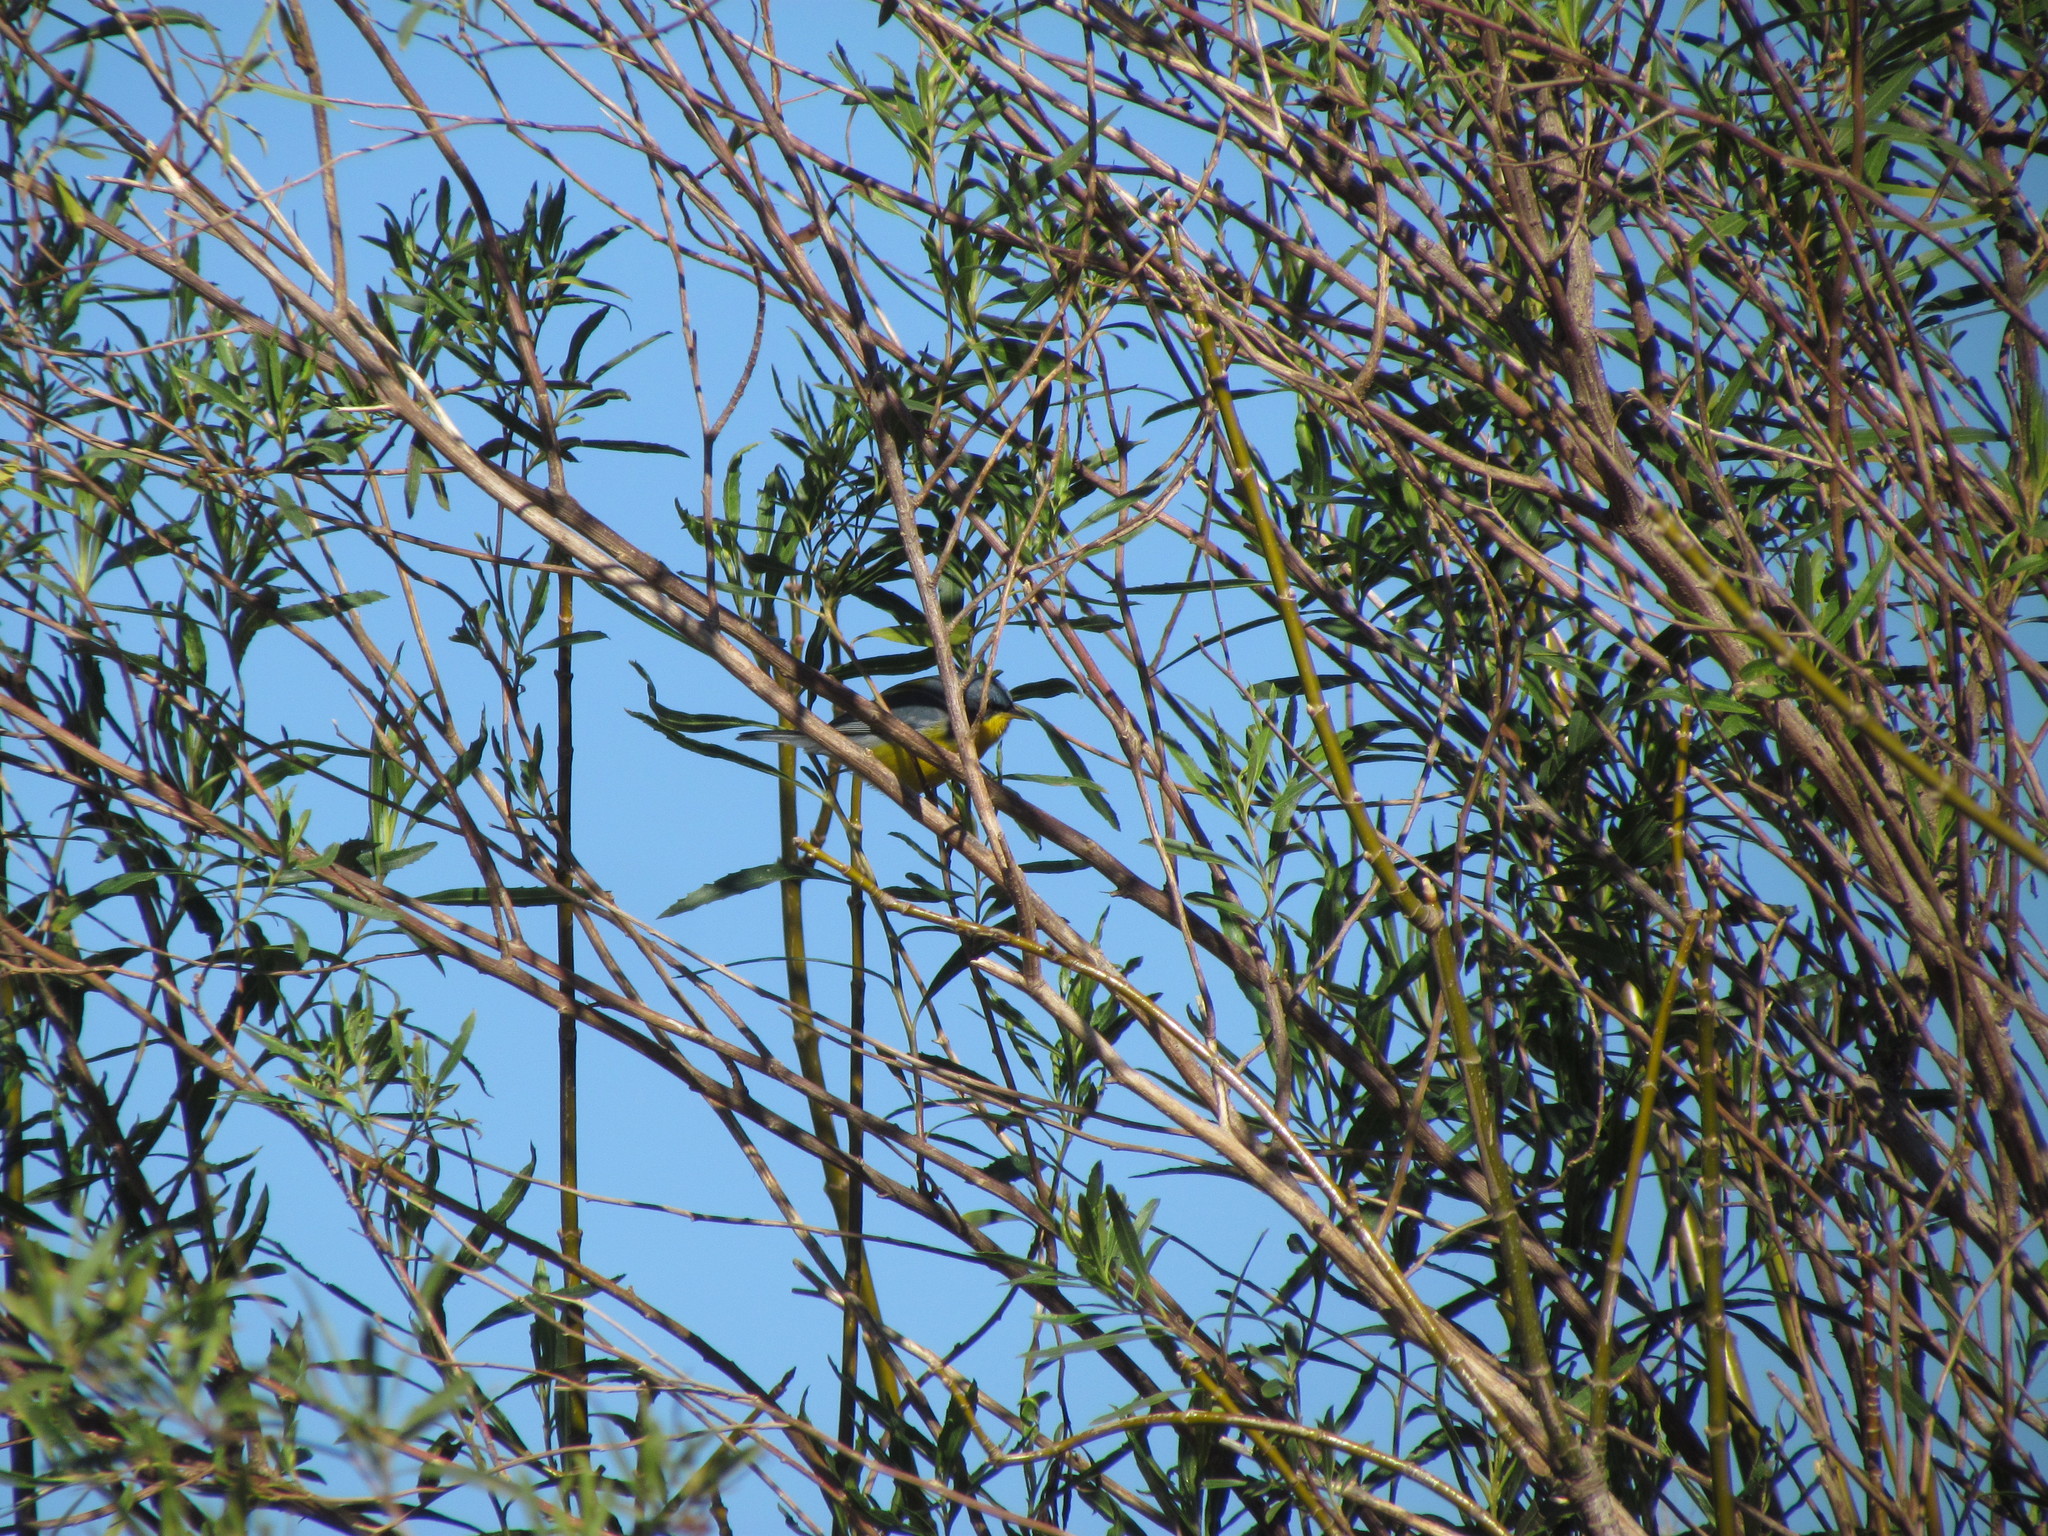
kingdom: Animalia
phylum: Chordata
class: Aves
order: Passeriformes
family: Parulidae
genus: Setophaga
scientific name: Setophaga pitiayumi
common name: Tropical parula
